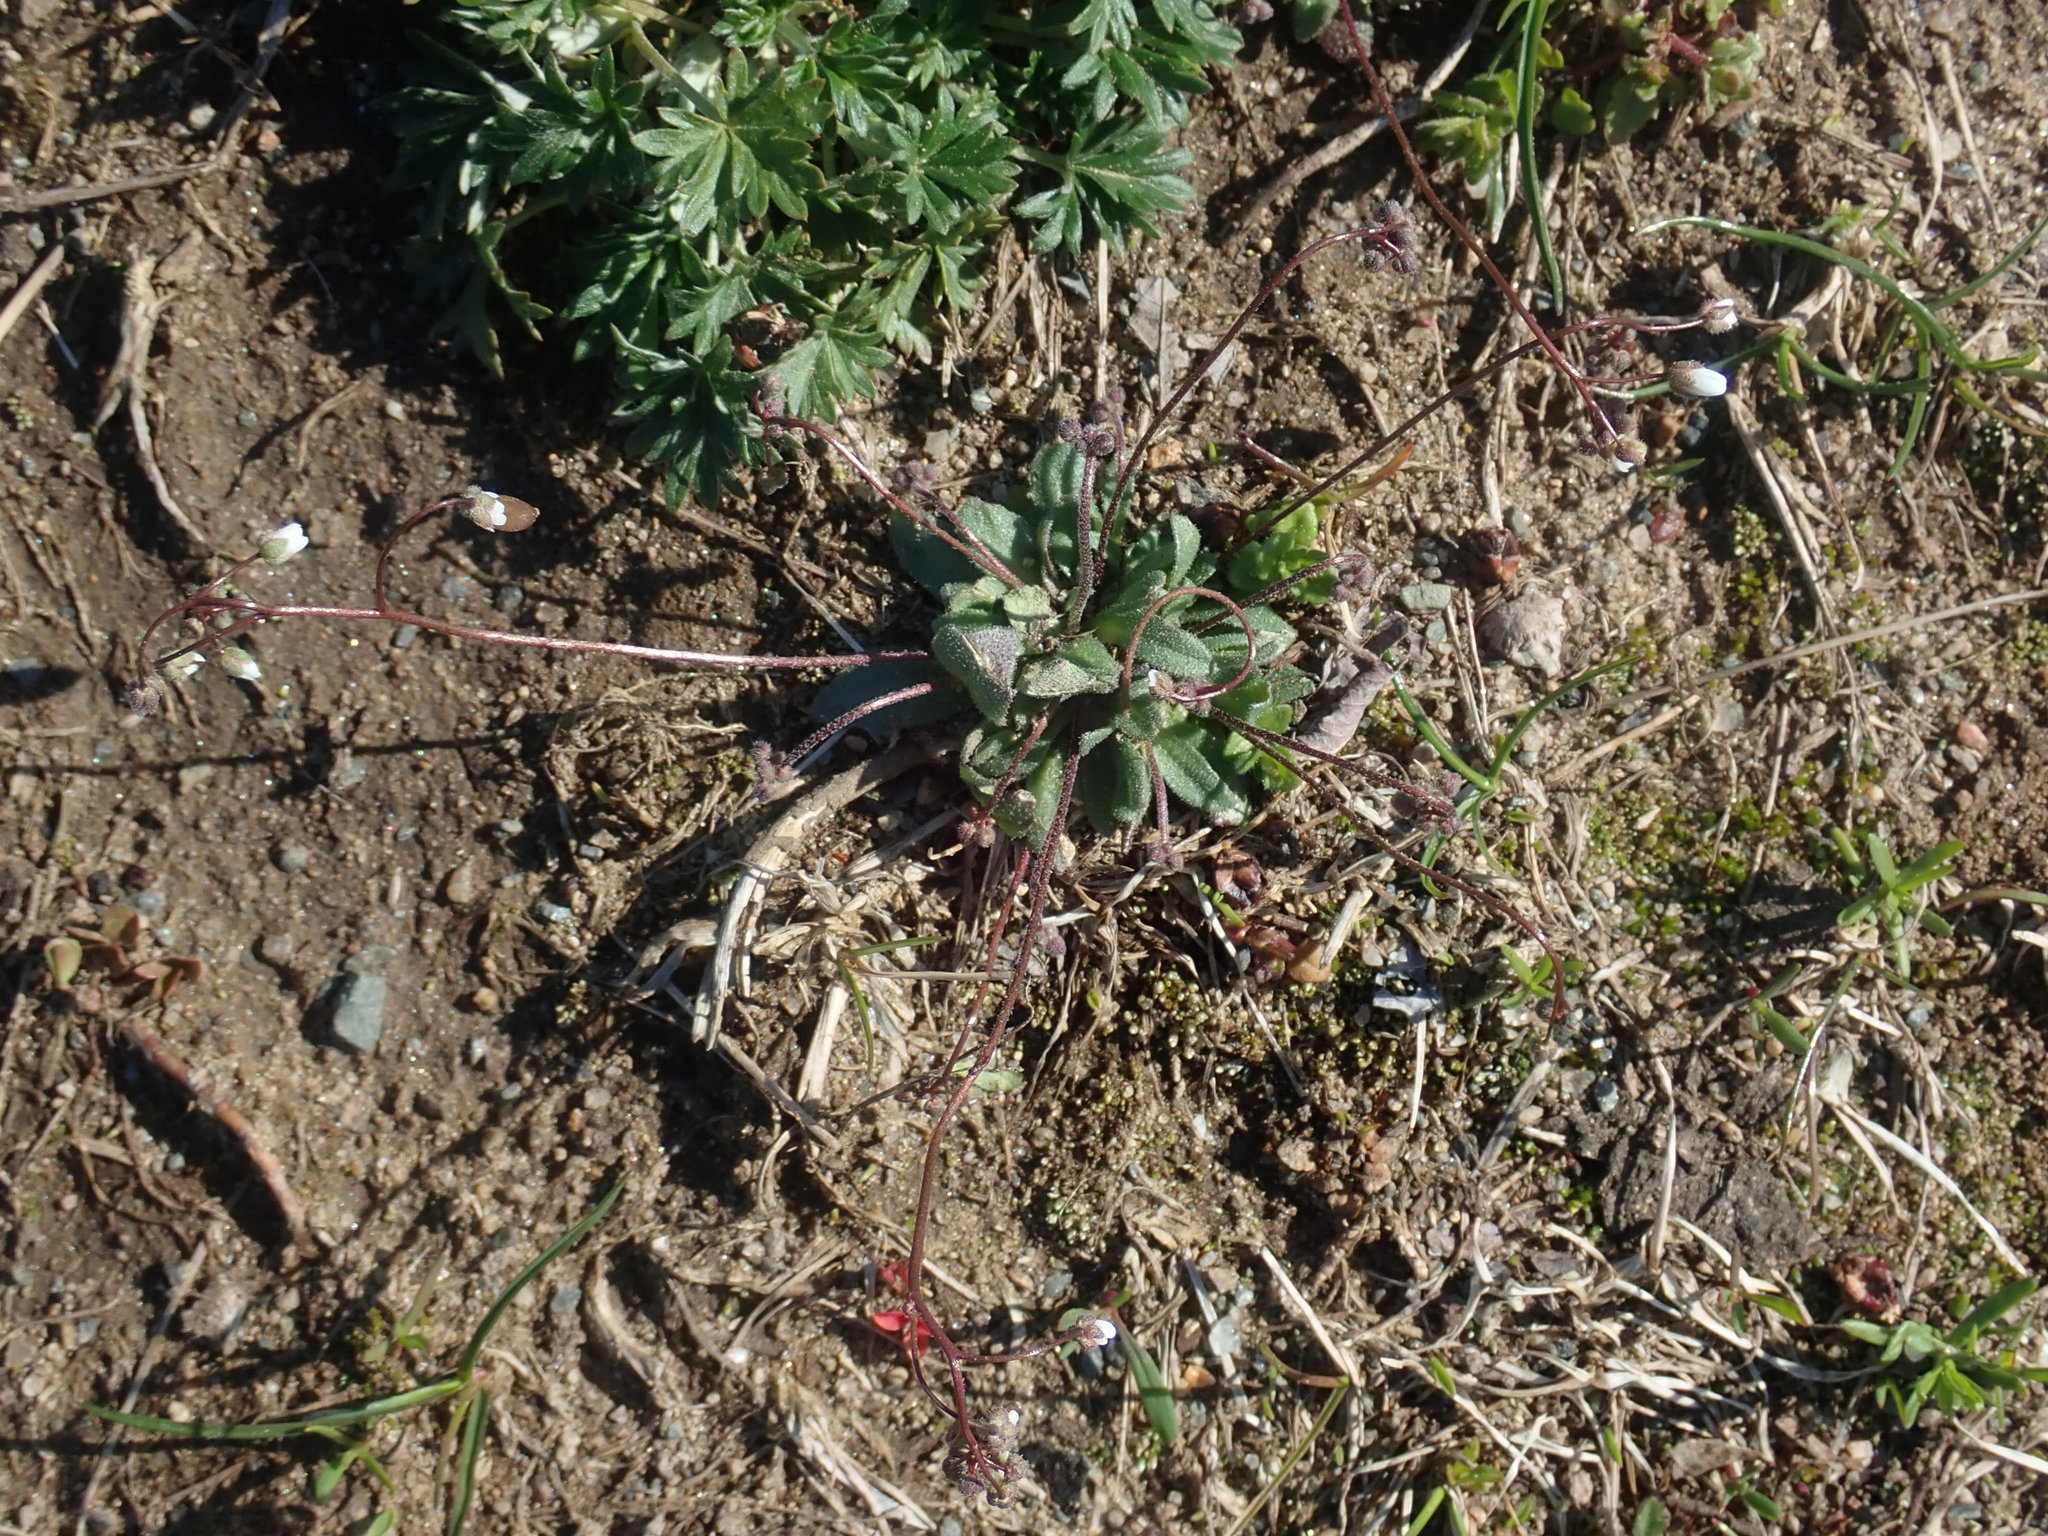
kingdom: Plantae
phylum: Tracheophyta
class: Magnoliopsida
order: Brassicales
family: Brassicaceae
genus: Draba
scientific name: Draba verna
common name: Spring draba
